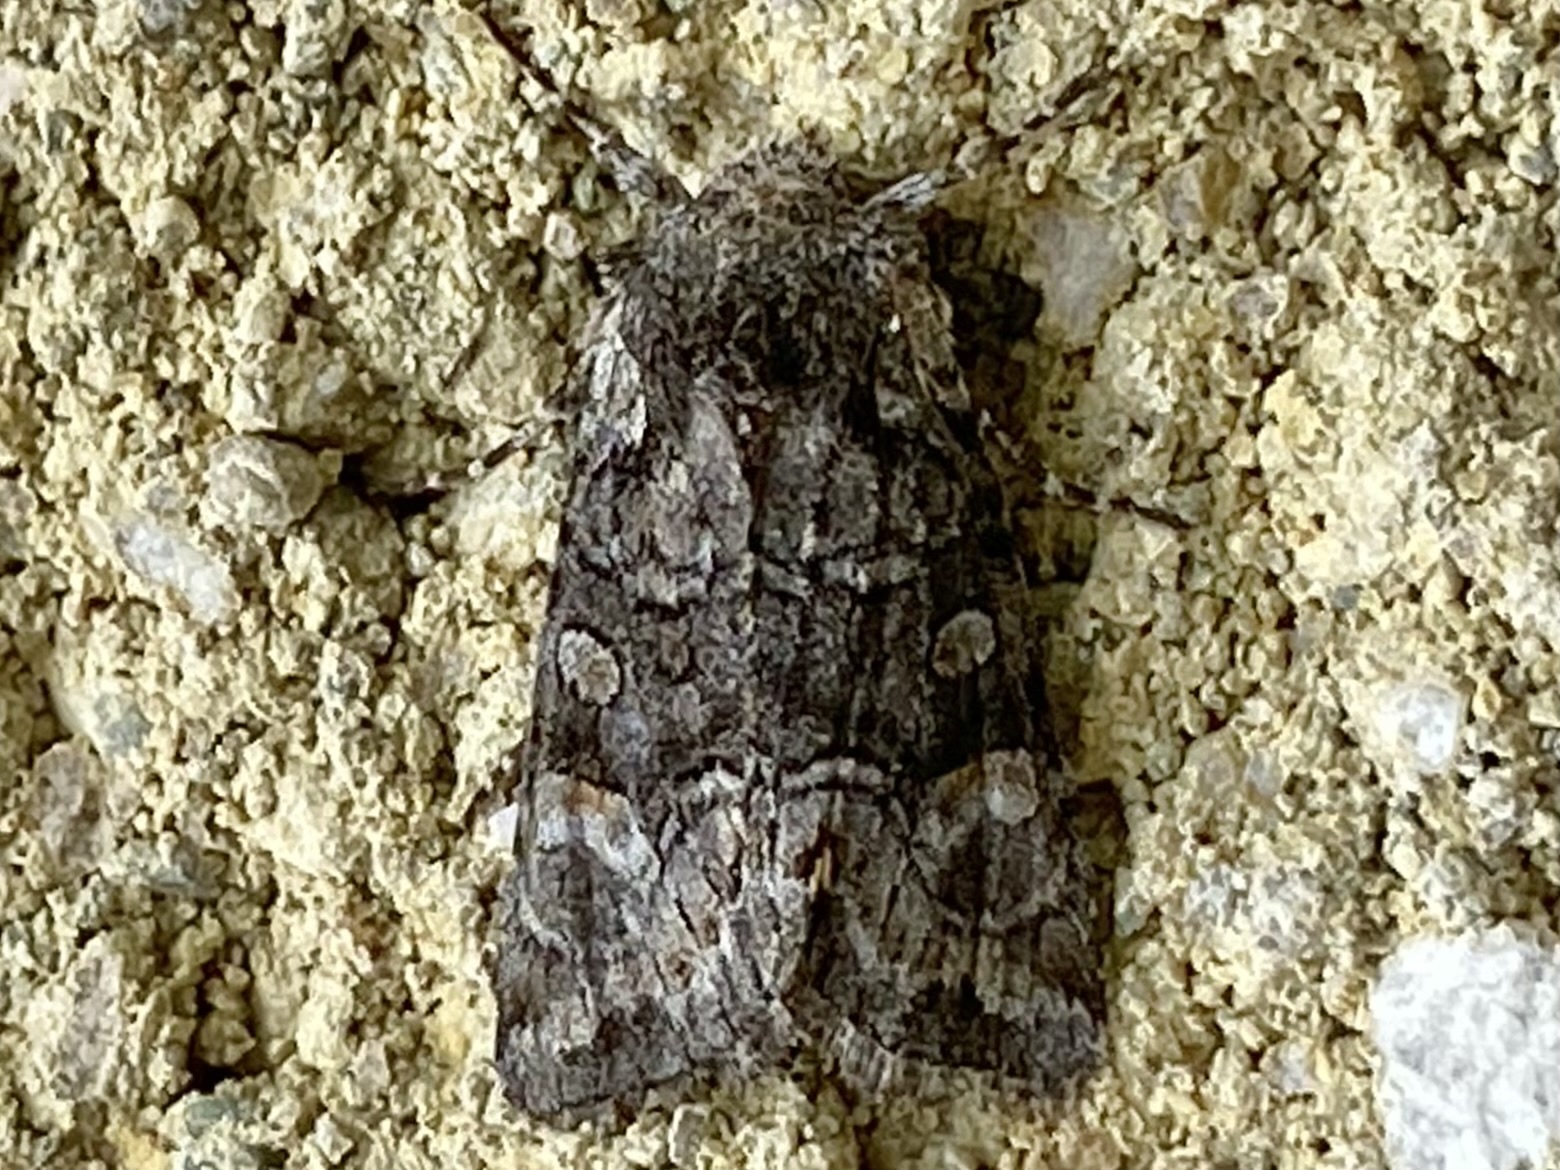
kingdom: Animalia
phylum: Arthropoda
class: Insecta
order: Lepidoptera
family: Noctuidae
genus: Lacinipolia
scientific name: Lacinipolia anguina
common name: Snaky arches moth
